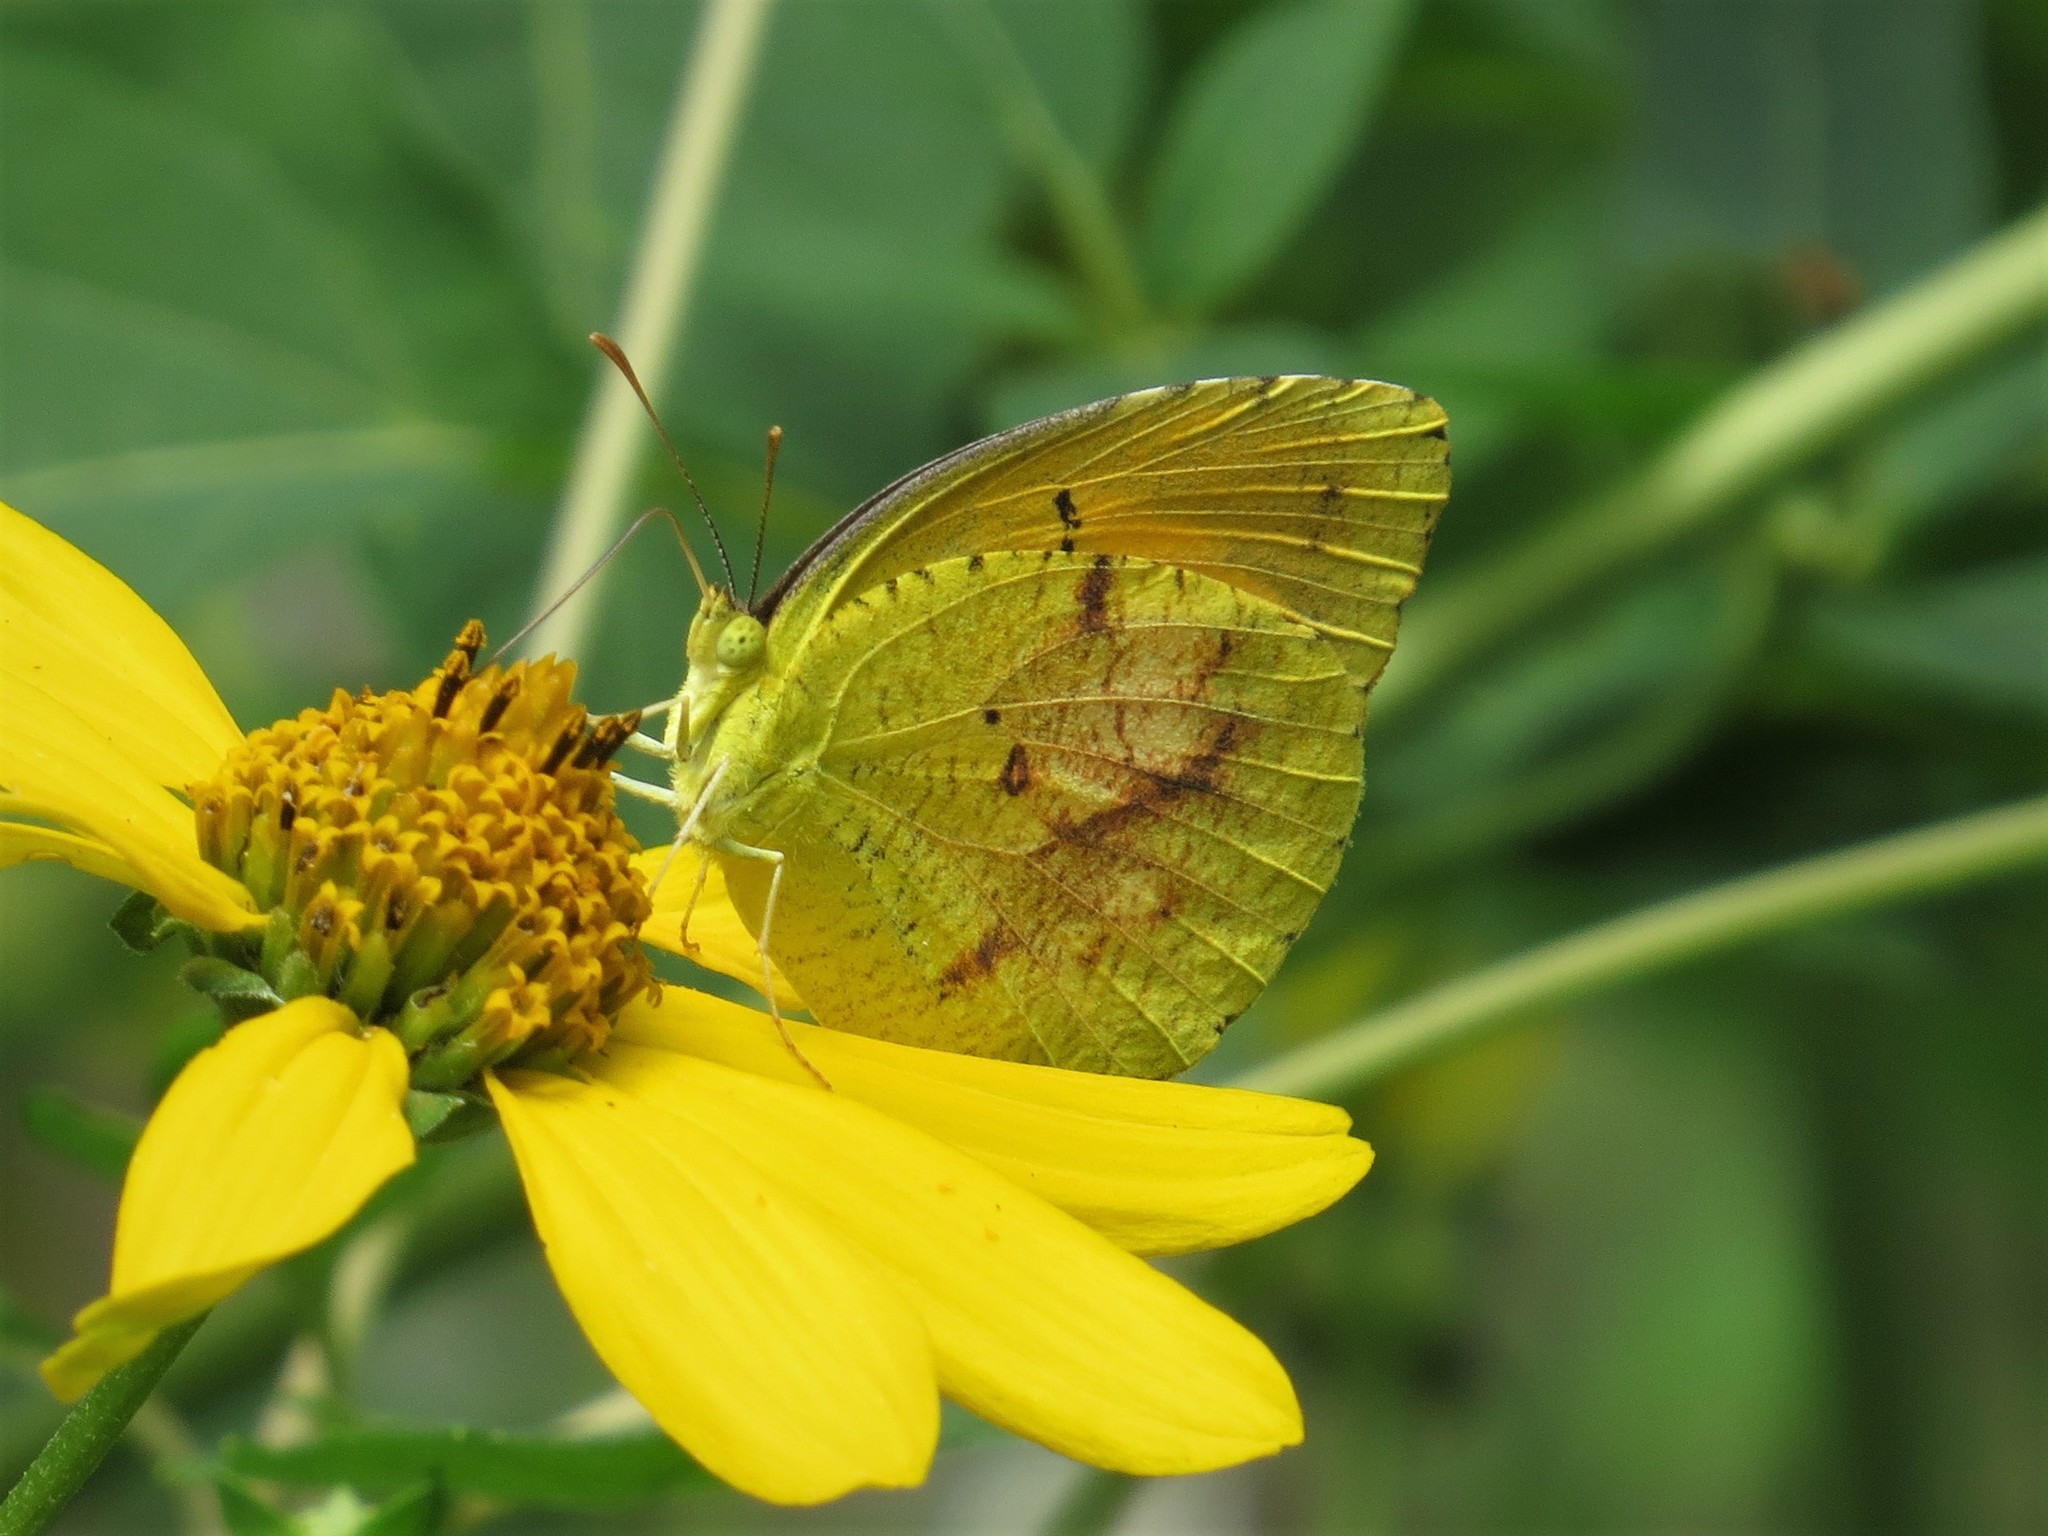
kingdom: Animalia
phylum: Arthropoda
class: Insecta
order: Lepidoptera
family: Pieridae
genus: Abaeis
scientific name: Abaeis nicippe
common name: Sleepy orange
